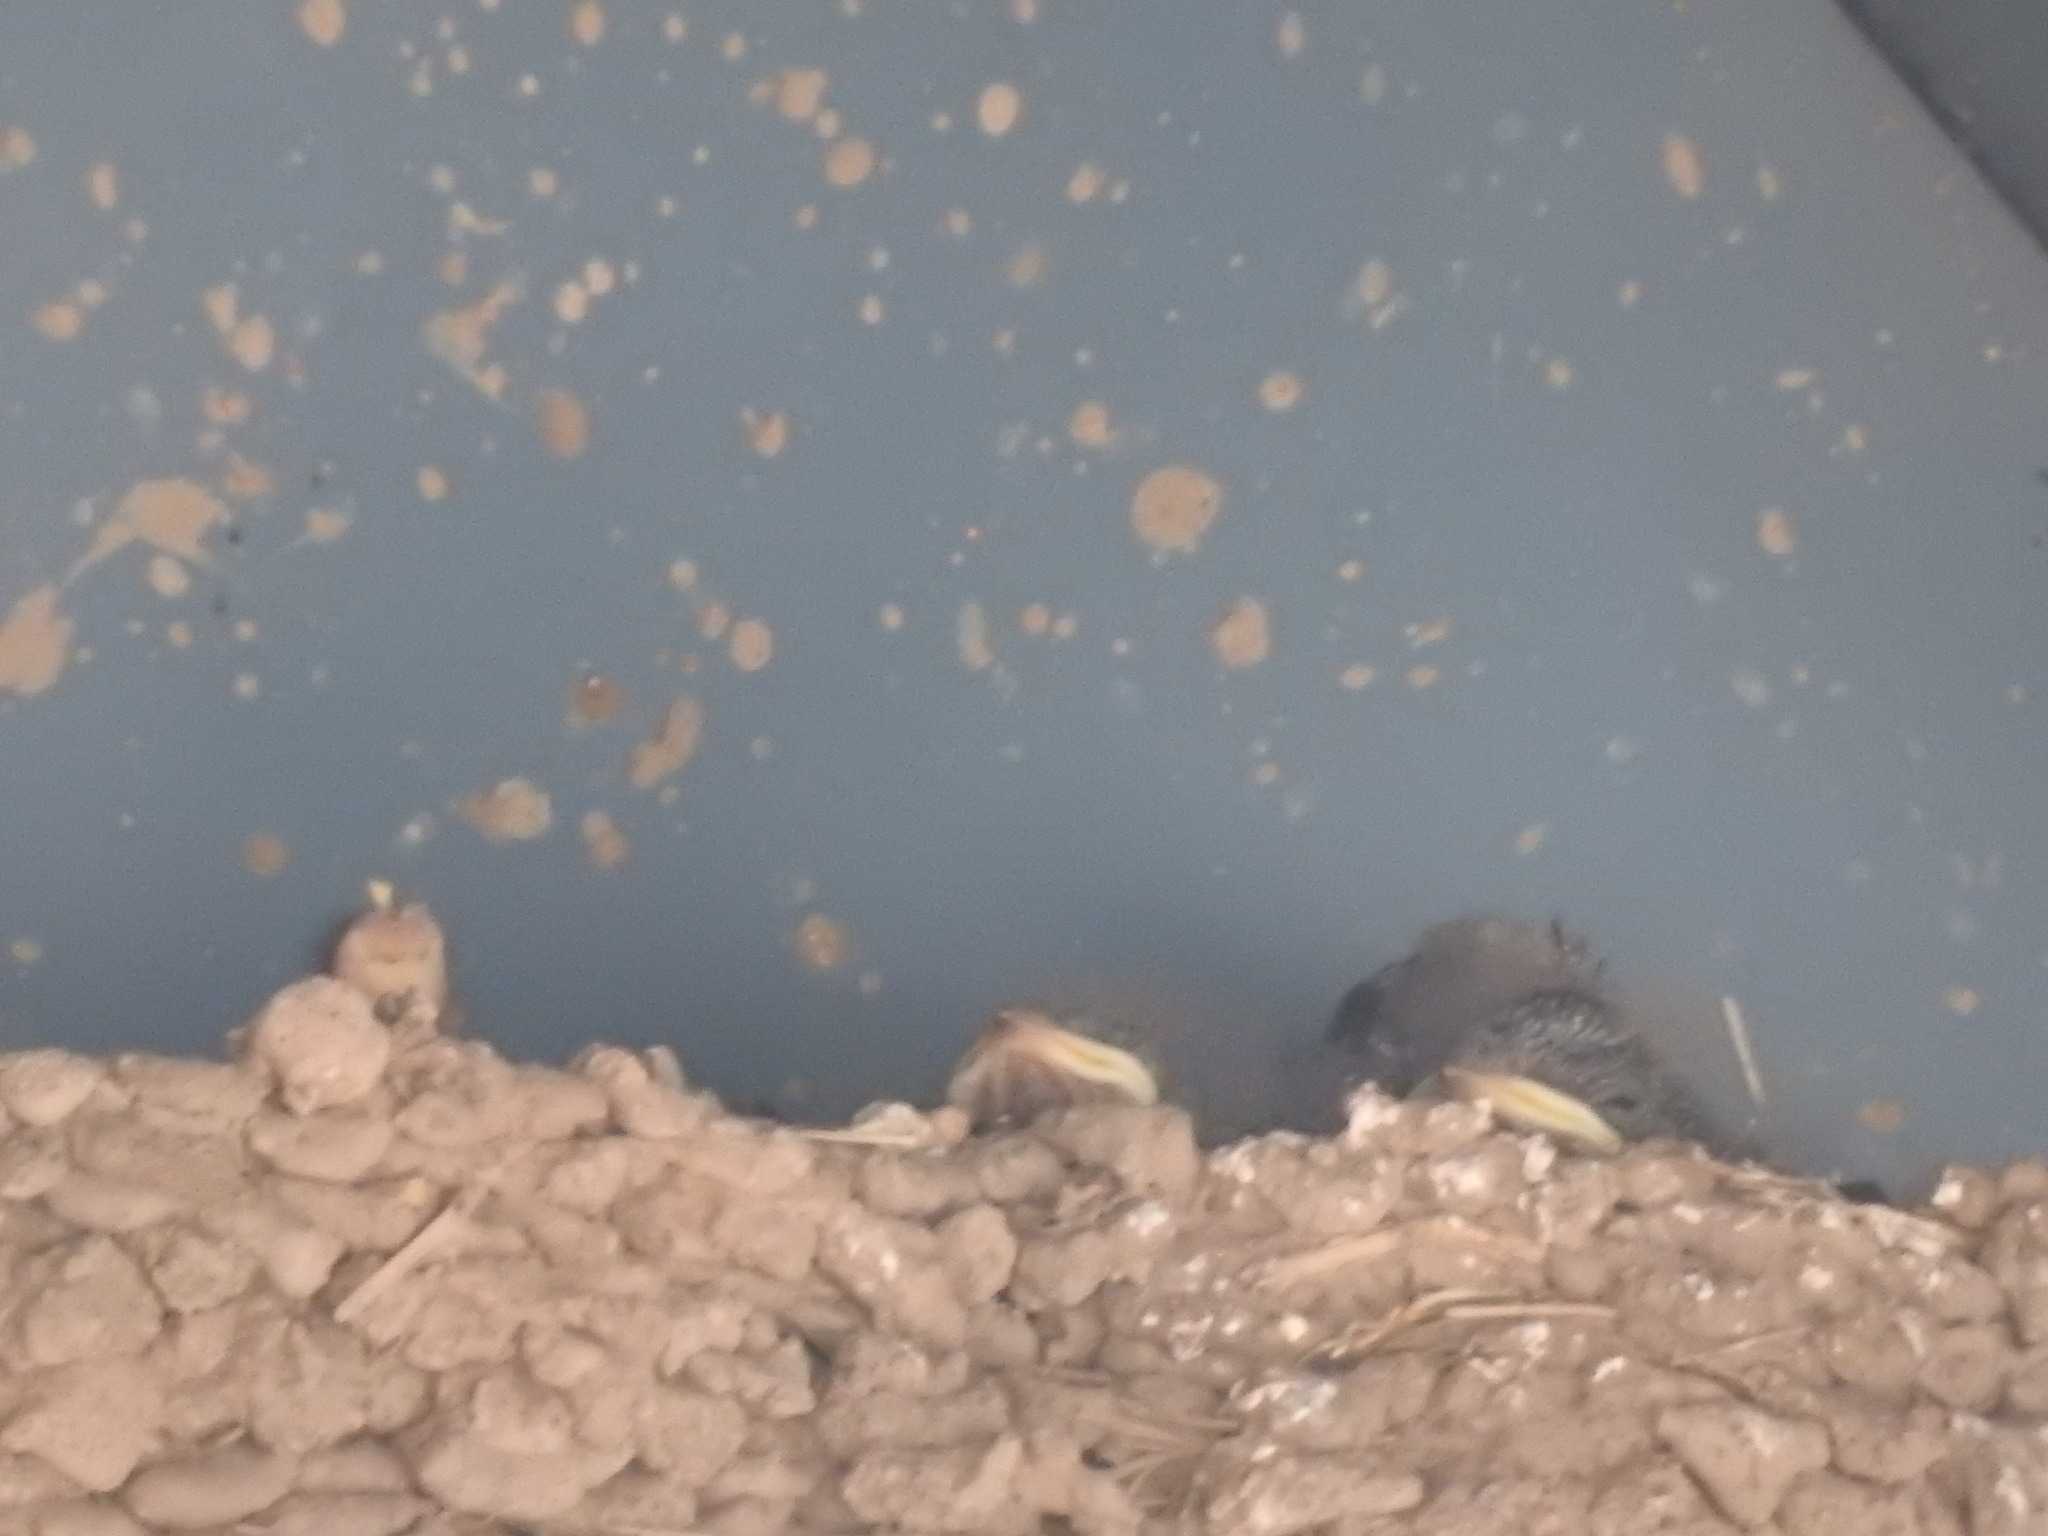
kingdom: Animalia
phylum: Chordata
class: Aves
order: Passeriformes
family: Hirundinidae
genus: Hirundo
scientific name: Hirundo rustica
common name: Barn swallow
